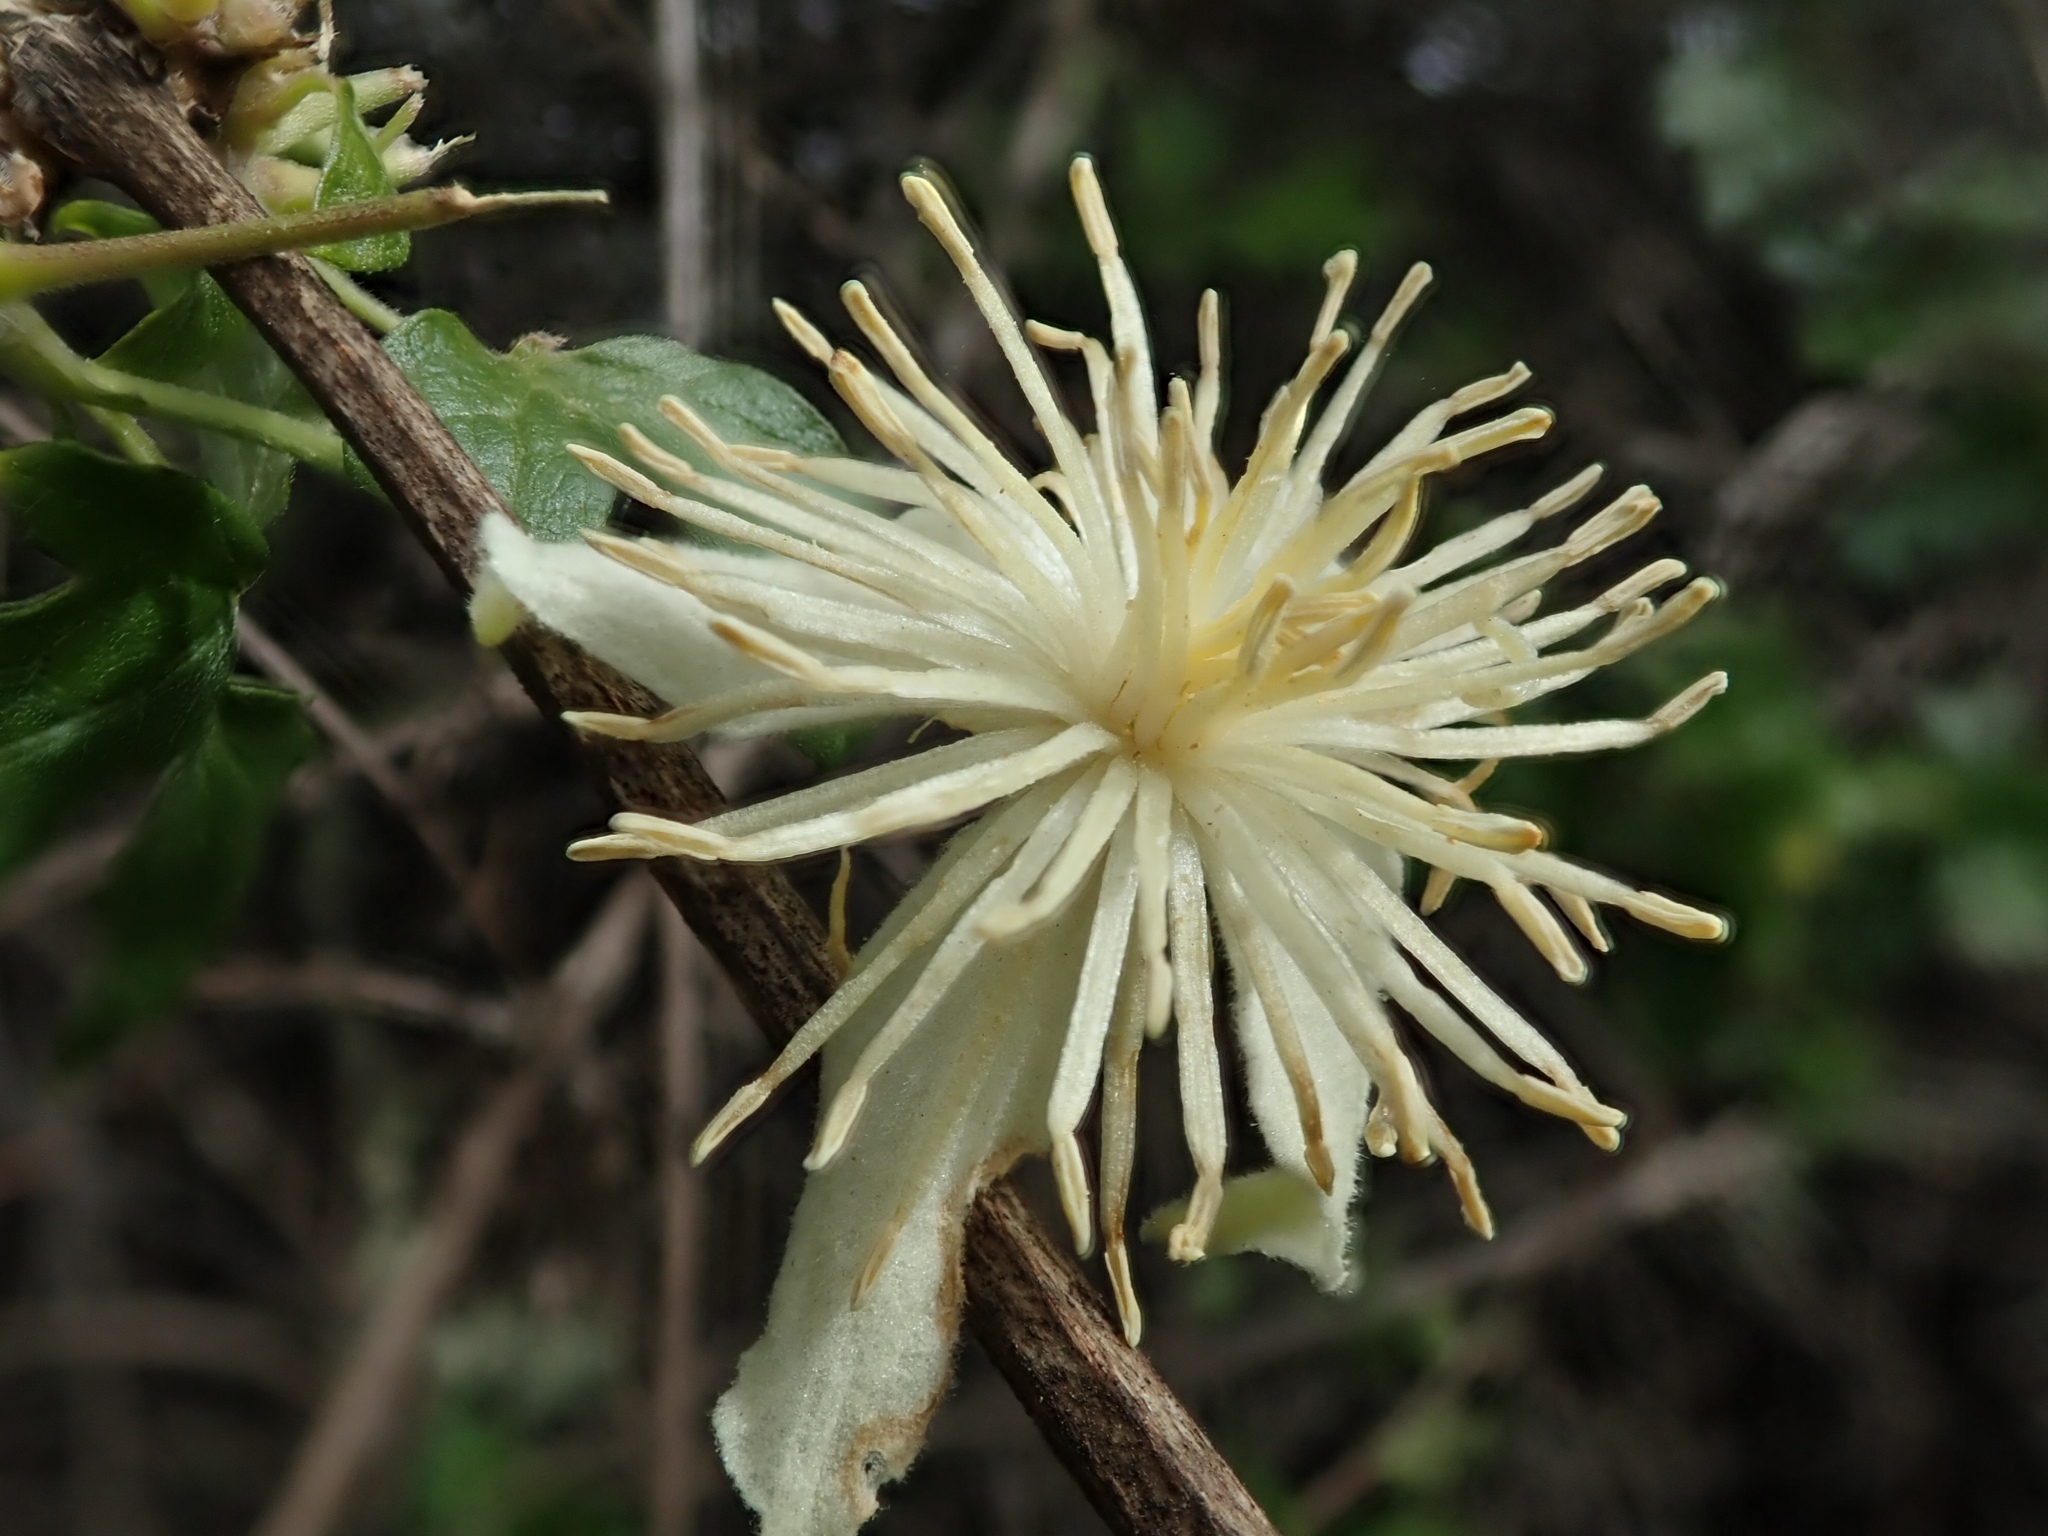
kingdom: Plantae
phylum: Tracheophyta
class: Magnoliopsida
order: Ranunculales
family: Ranunculaceae
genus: Clematis
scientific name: Clematis lasiantha
